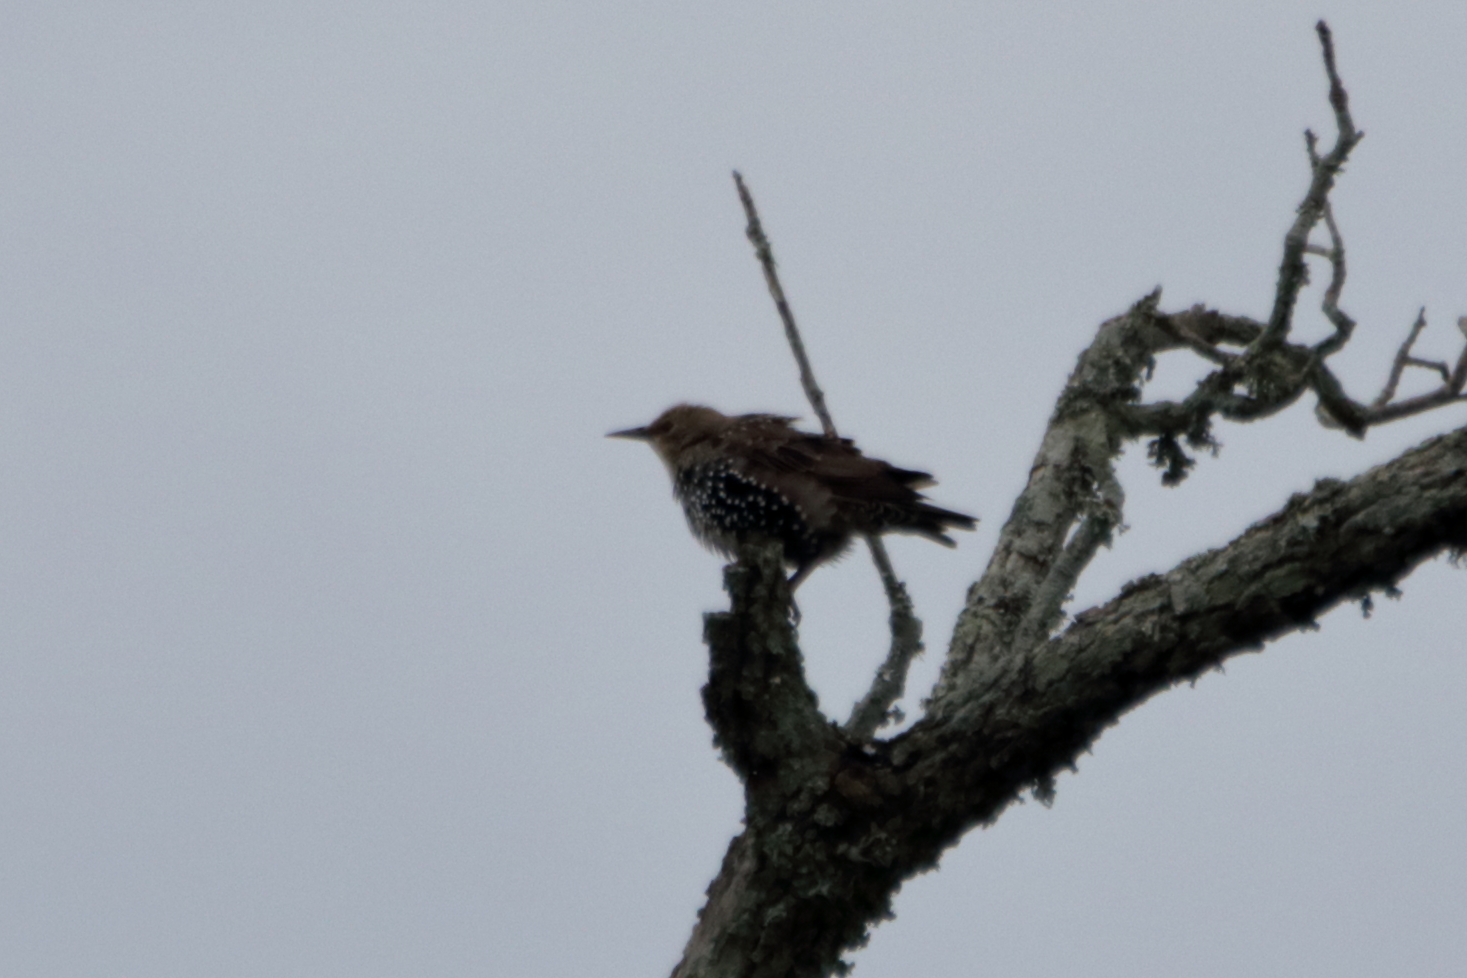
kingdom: Animalia
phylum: Chordata
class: Aves
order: Passeriformes
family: Sturnidae
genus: Sturnus
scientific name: Sturnus vulgaris
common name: Common starling
